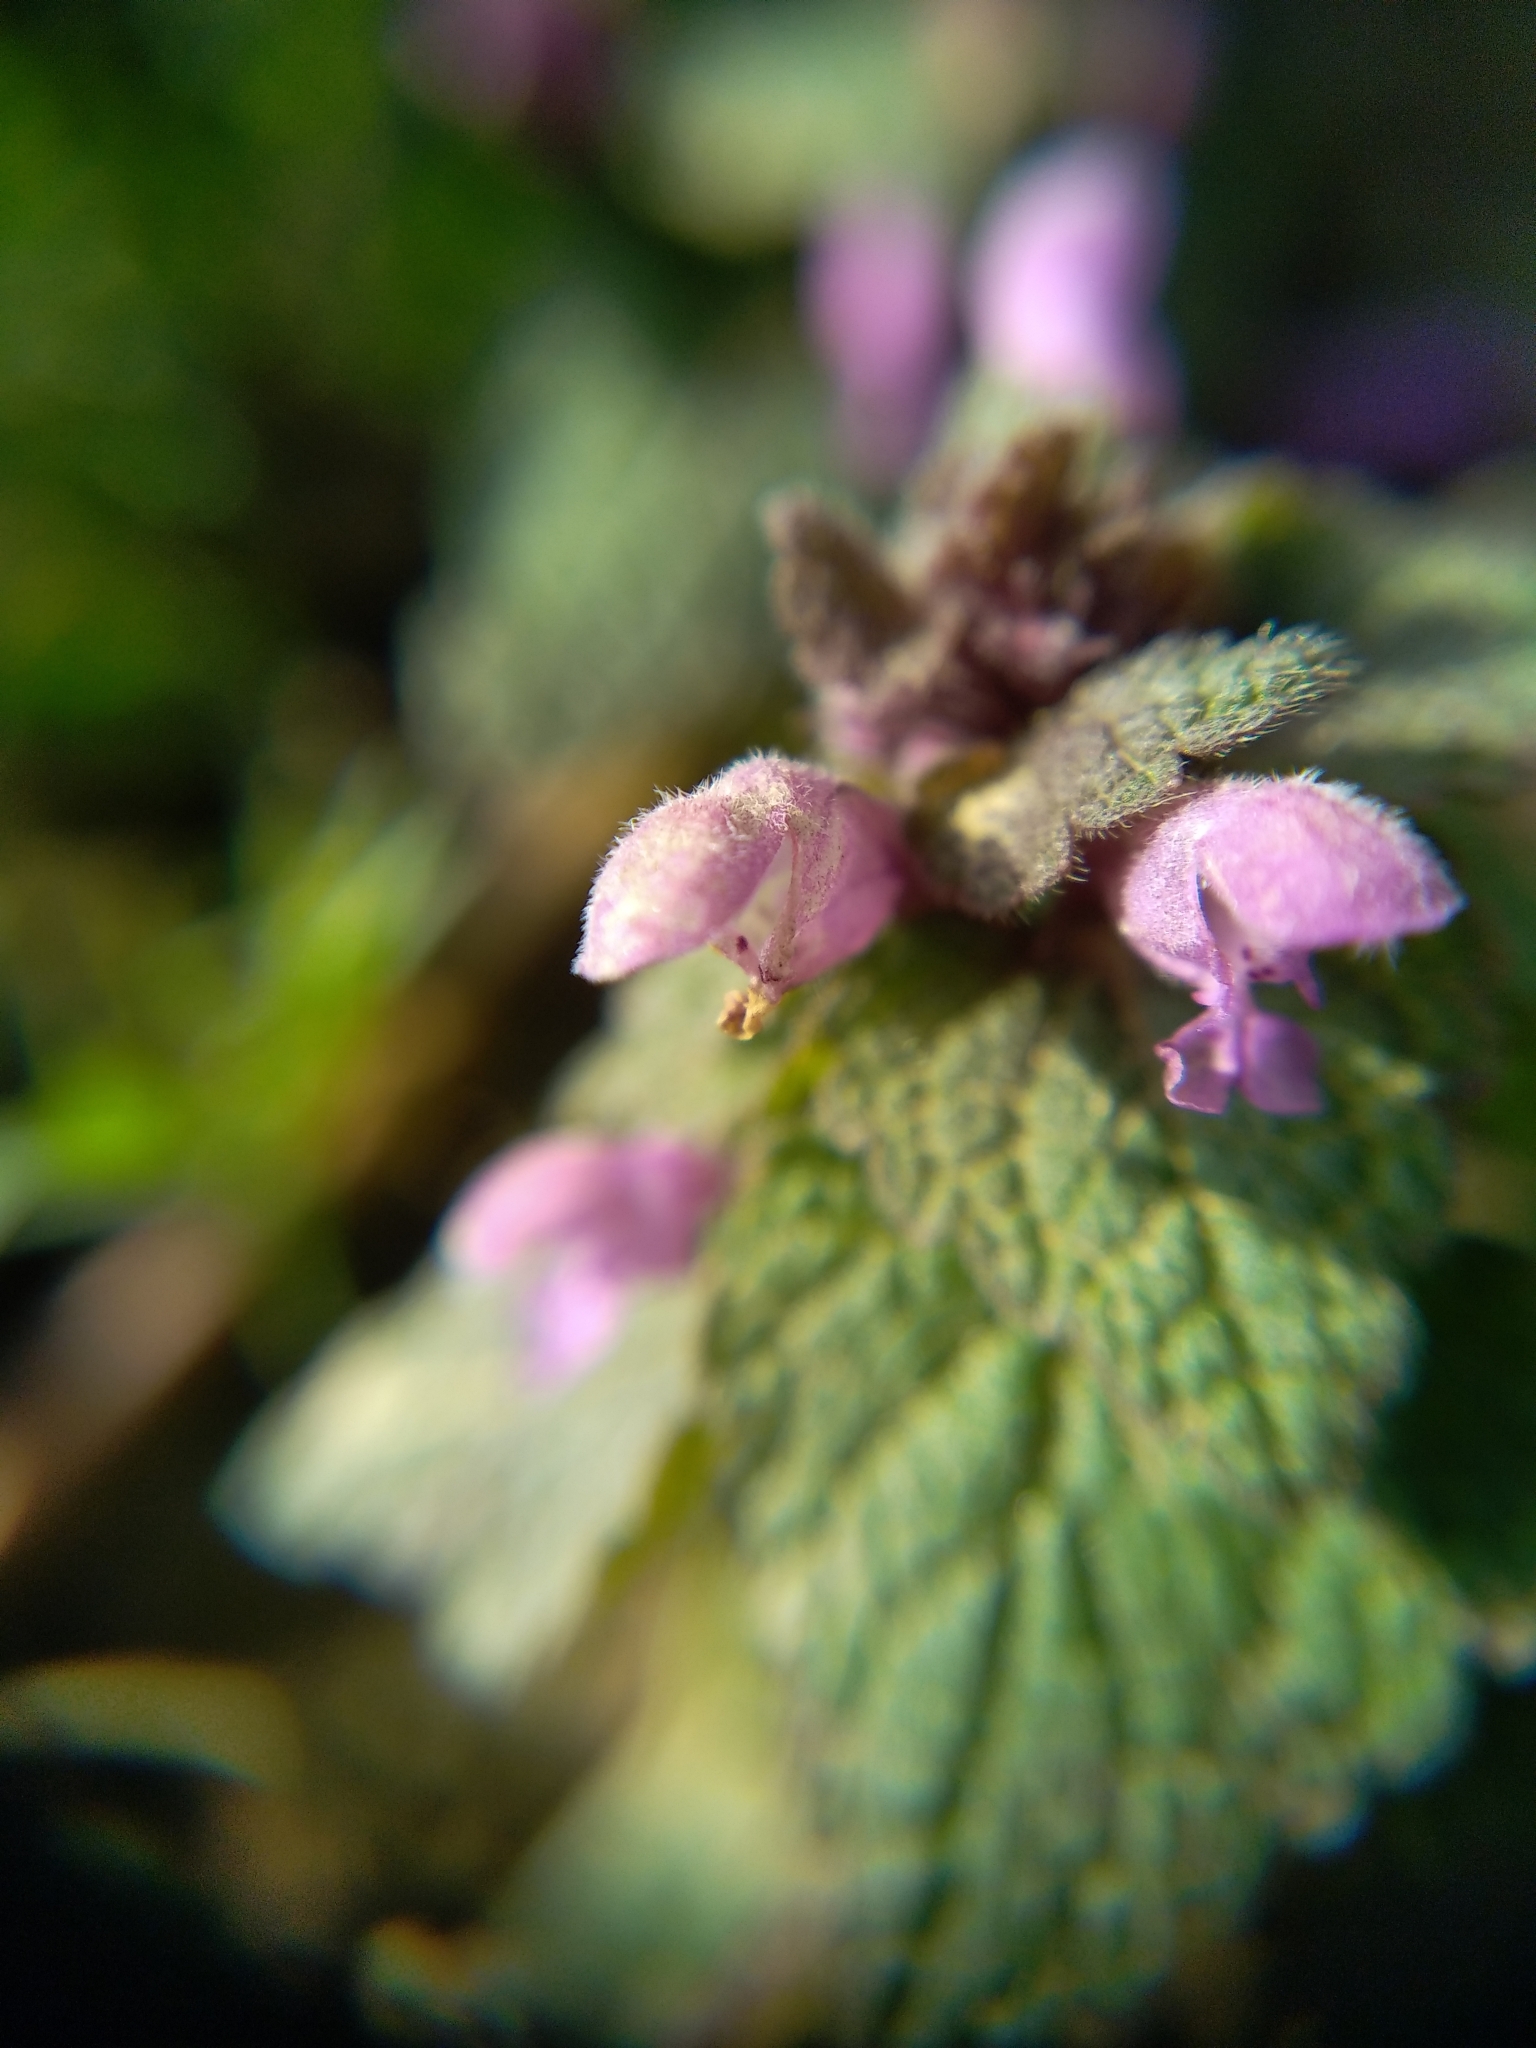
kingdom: Plantae
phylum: Tracheophyta
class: Magnoliopsida
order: Lamiales
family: Lamiaceae
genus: Lamium
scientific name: Lamium purpureum
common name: Red dead-nettle
